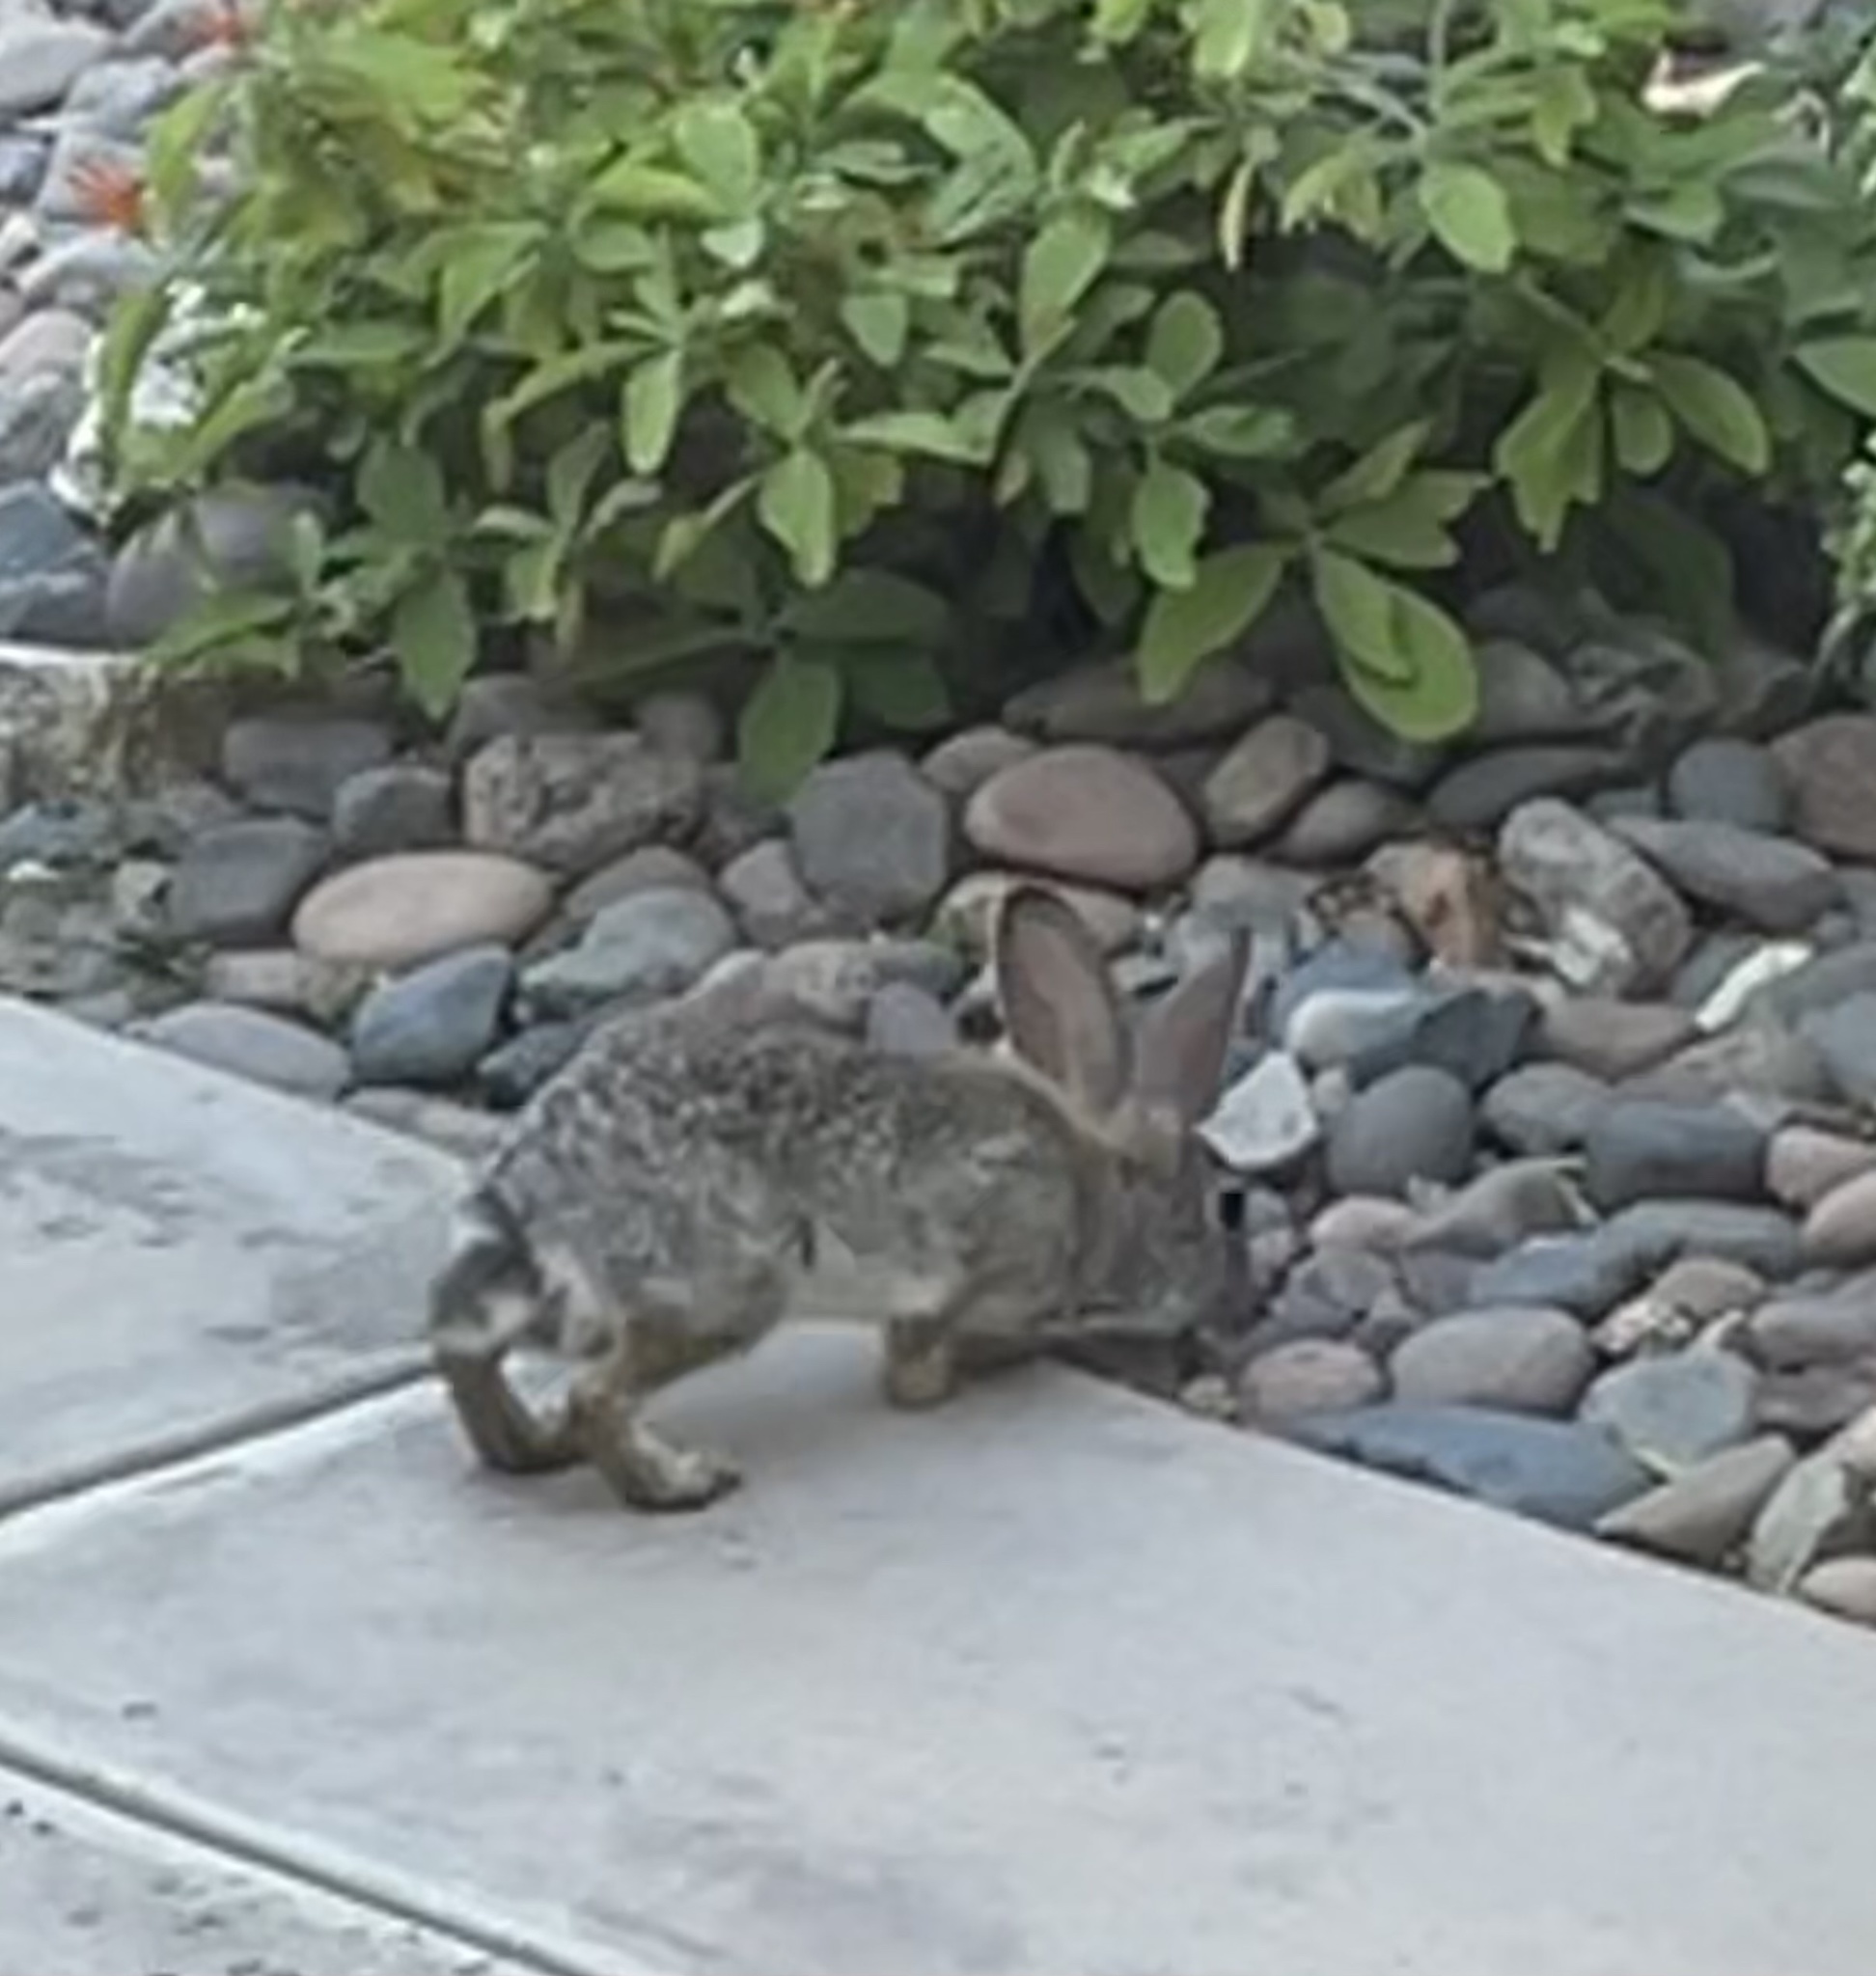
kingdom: Animalia
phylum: Chordata
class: Mammalia
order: Lagomorpha
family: Leporidae
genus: Sylvilagus
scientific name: Sylvilagus audubonii
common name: Desert cottontail
